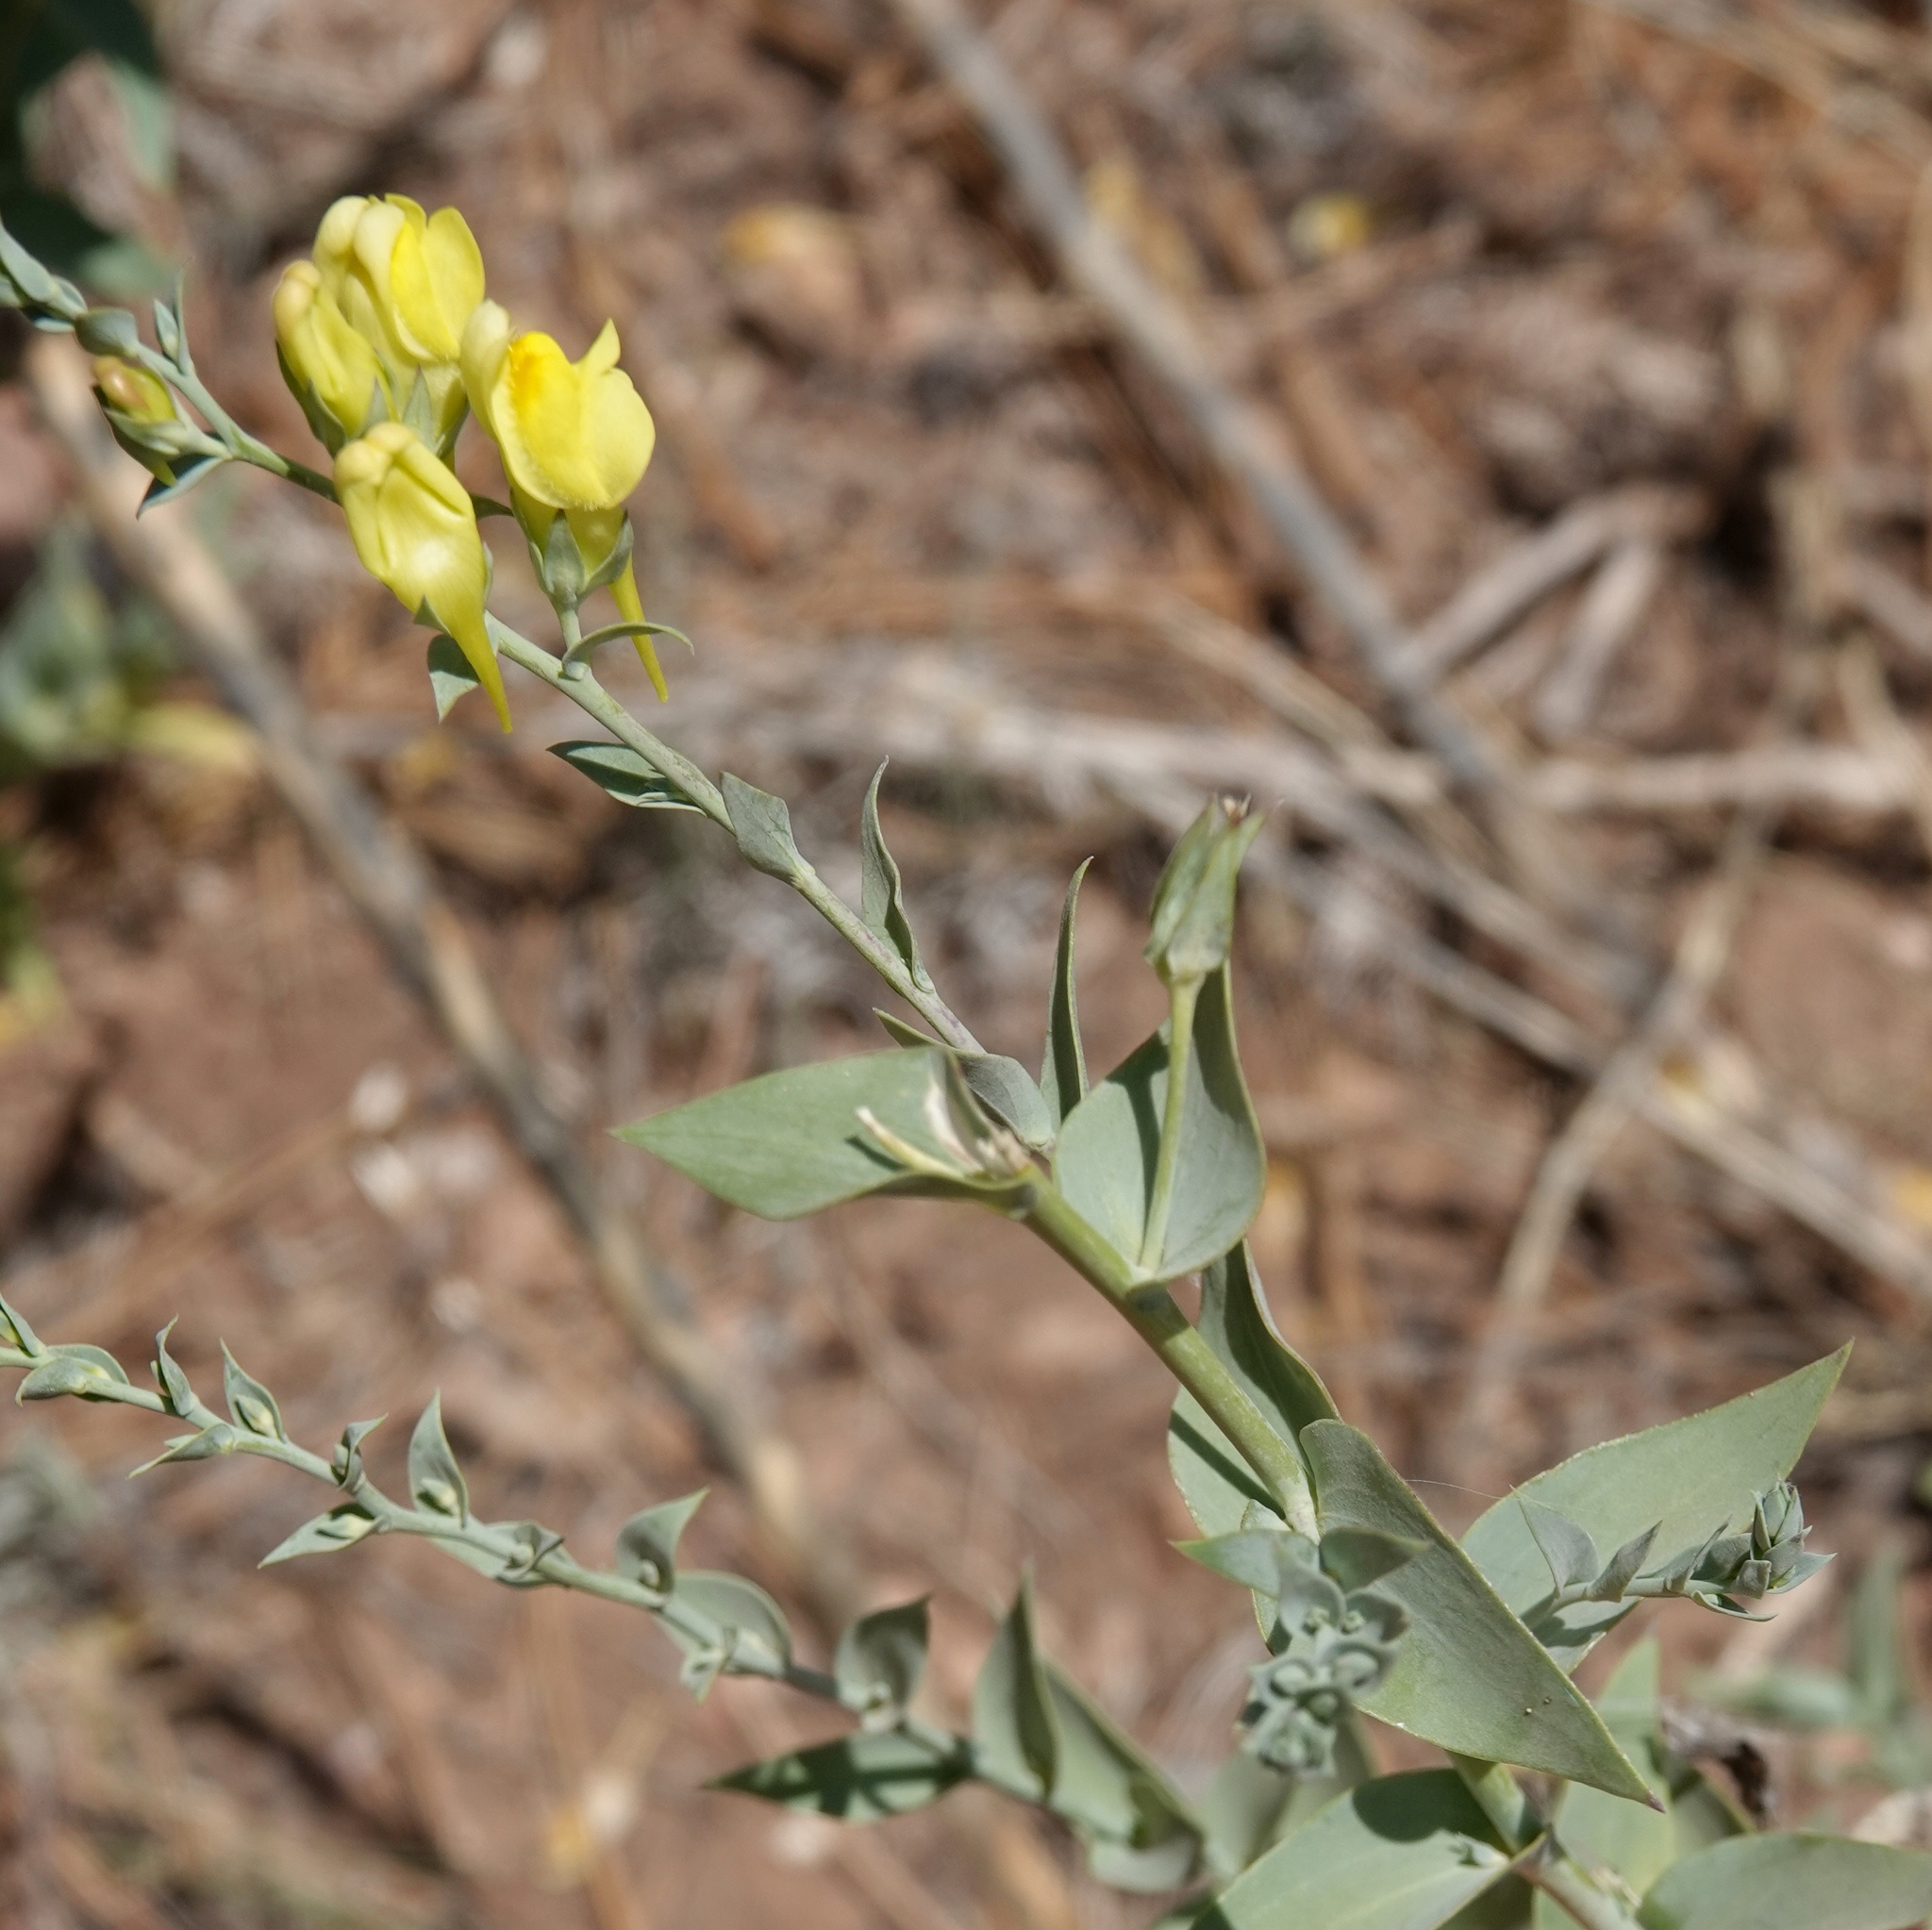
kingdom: Plantae
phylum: Tracheophyta
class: Magnoliopsida
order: Lamiales
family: Plantaginaceae
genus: Linaria
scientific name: Linaria dalmatica
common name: Dalmatian toadflax
